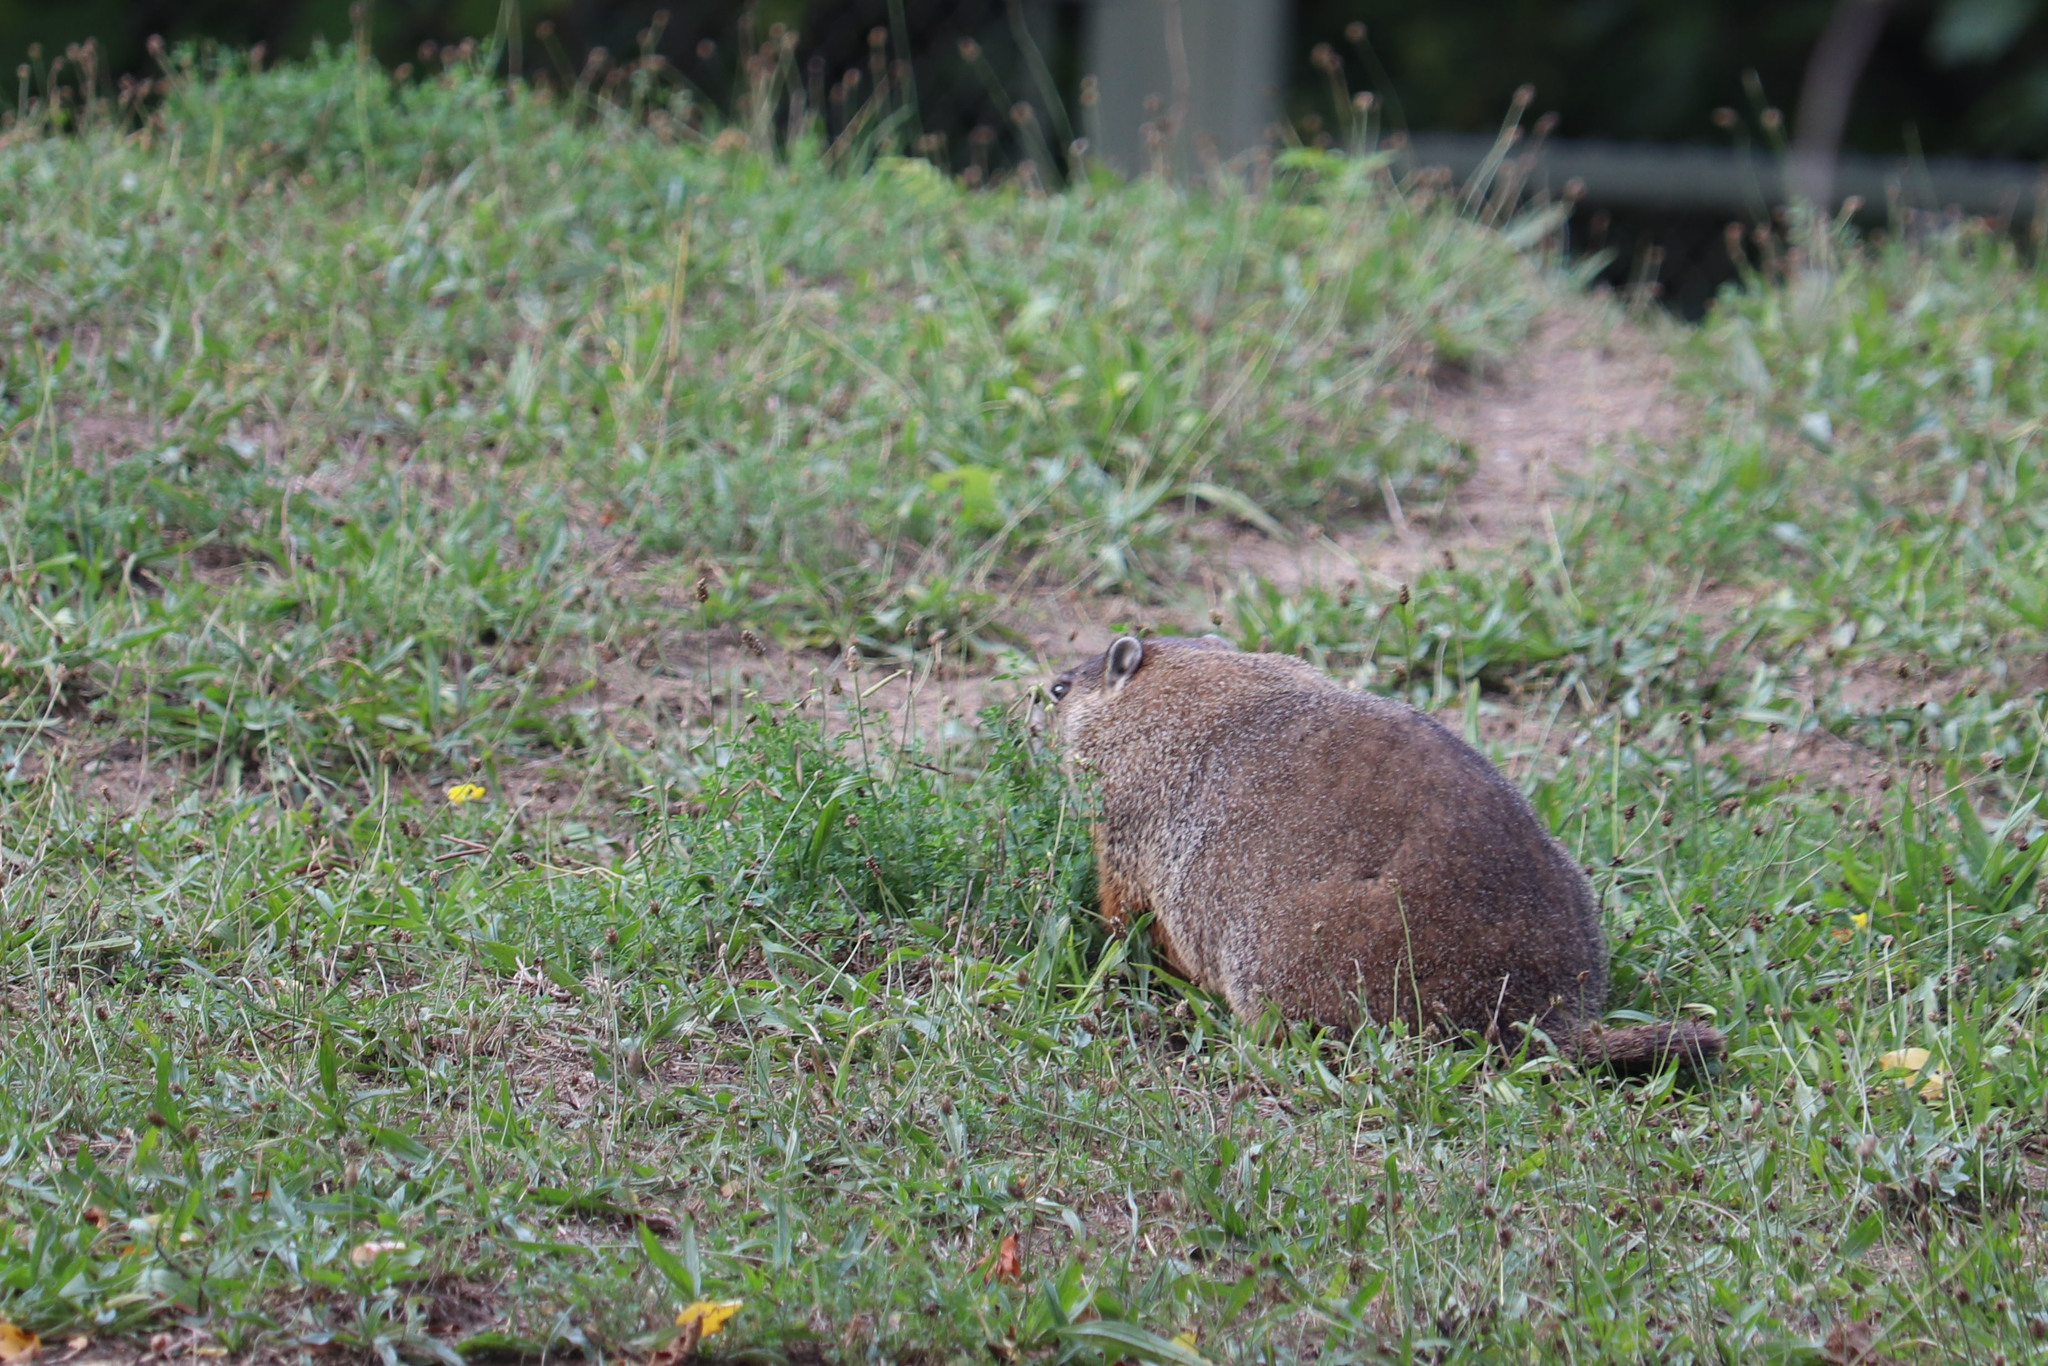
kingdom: Animalia
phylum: Chordata
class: Mammalia
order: Rodentia
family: Sciuridae
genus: Marmota
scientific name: Marmota monax
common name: Groundhog
